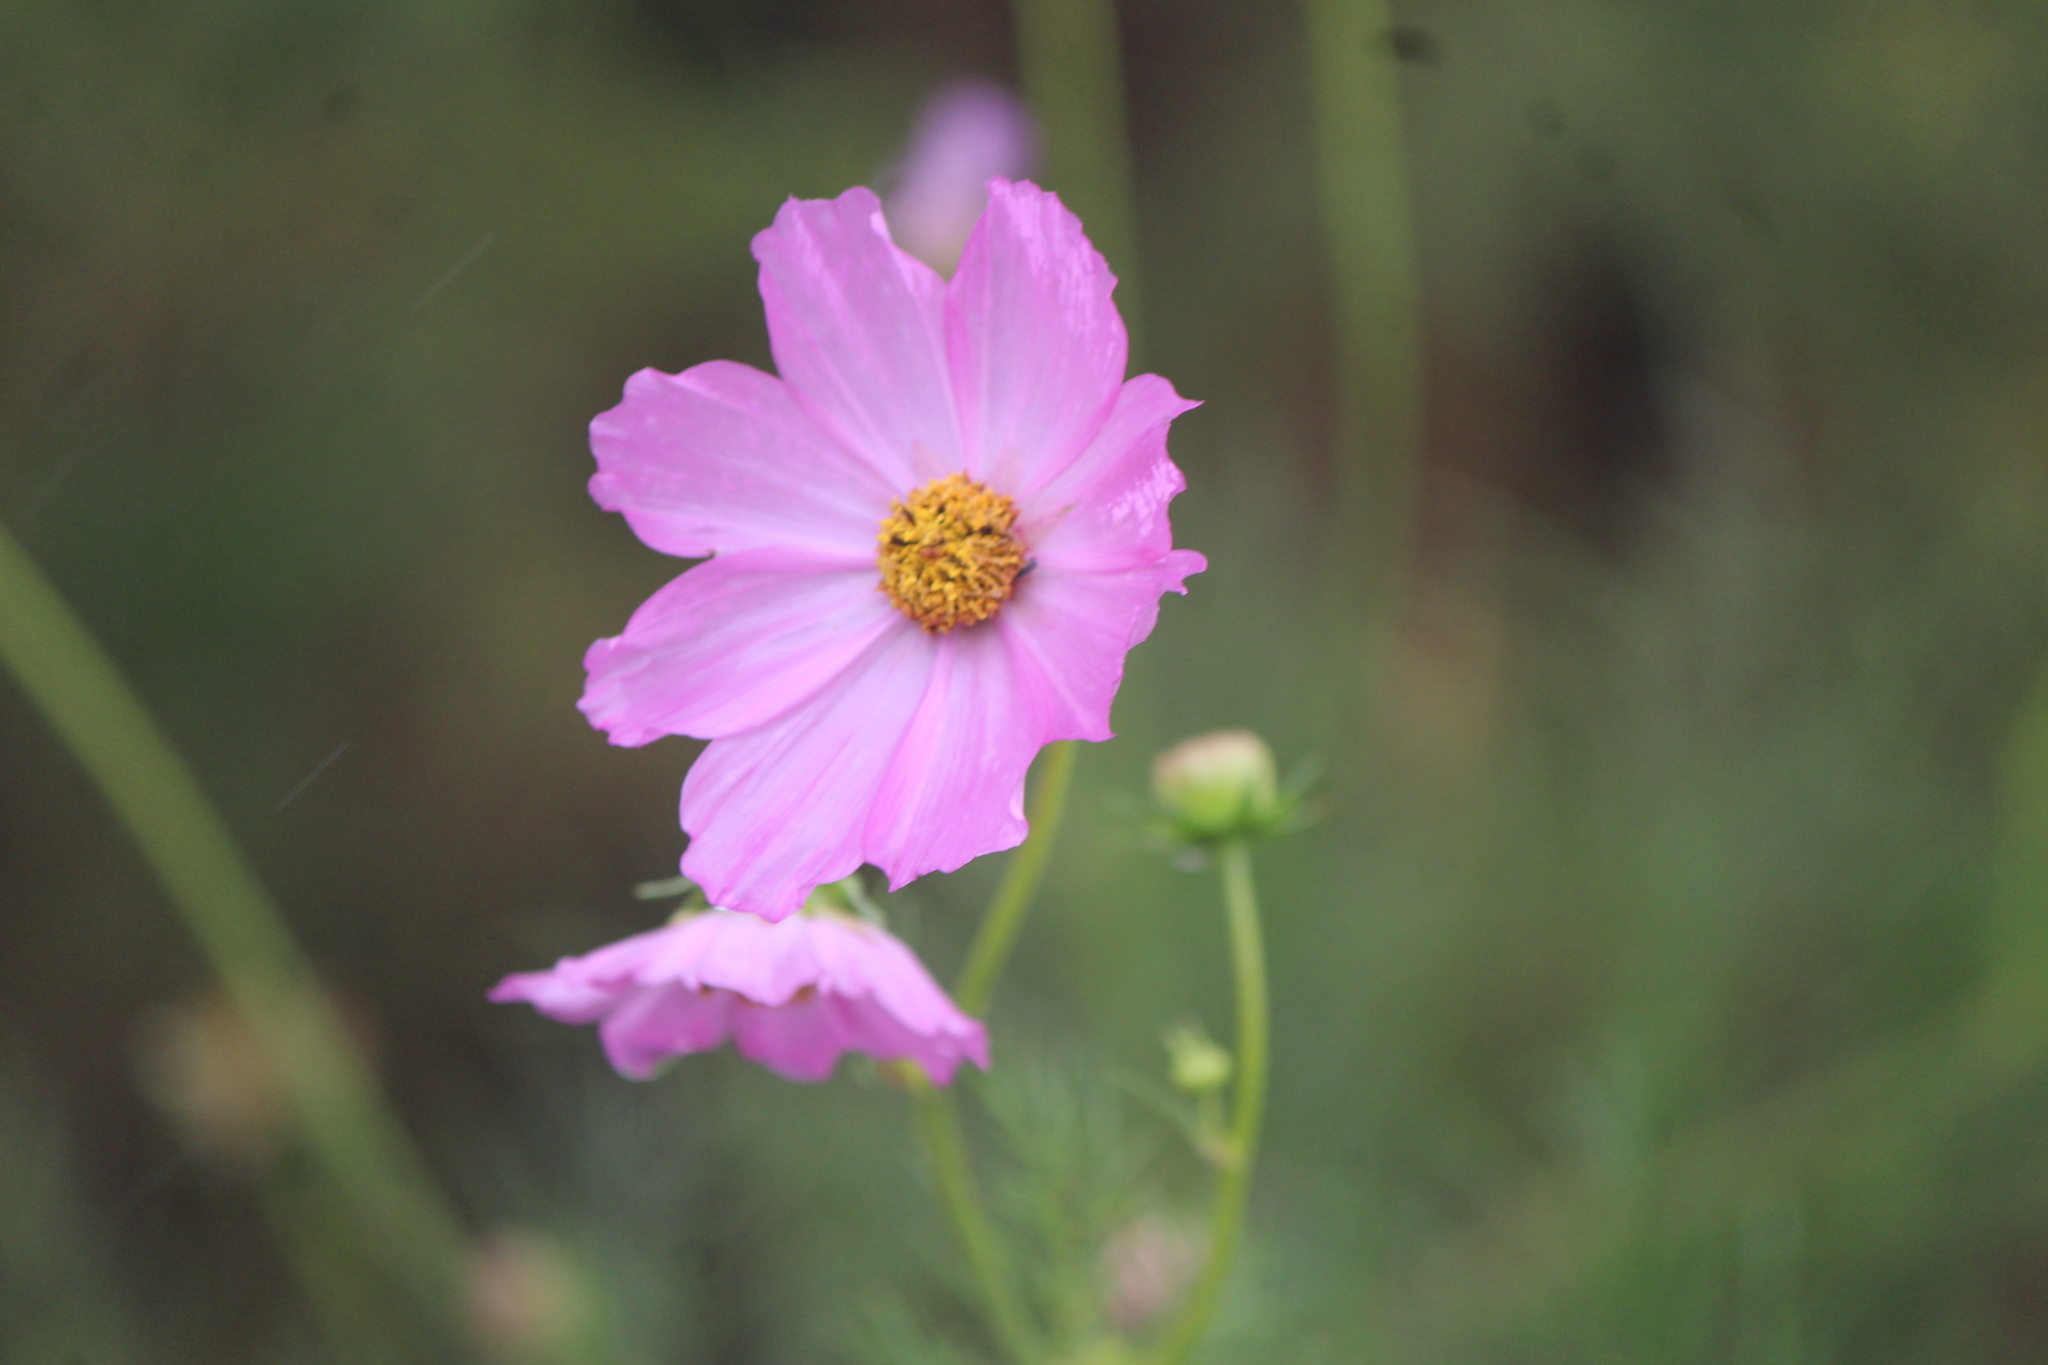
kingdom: Plantae
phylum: Tracheophyta
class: Magnoliopsida
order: Asterales
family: Asteraceae
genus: Cosmos
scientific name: Cosmos bipinnatus
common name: Garden cosmos
